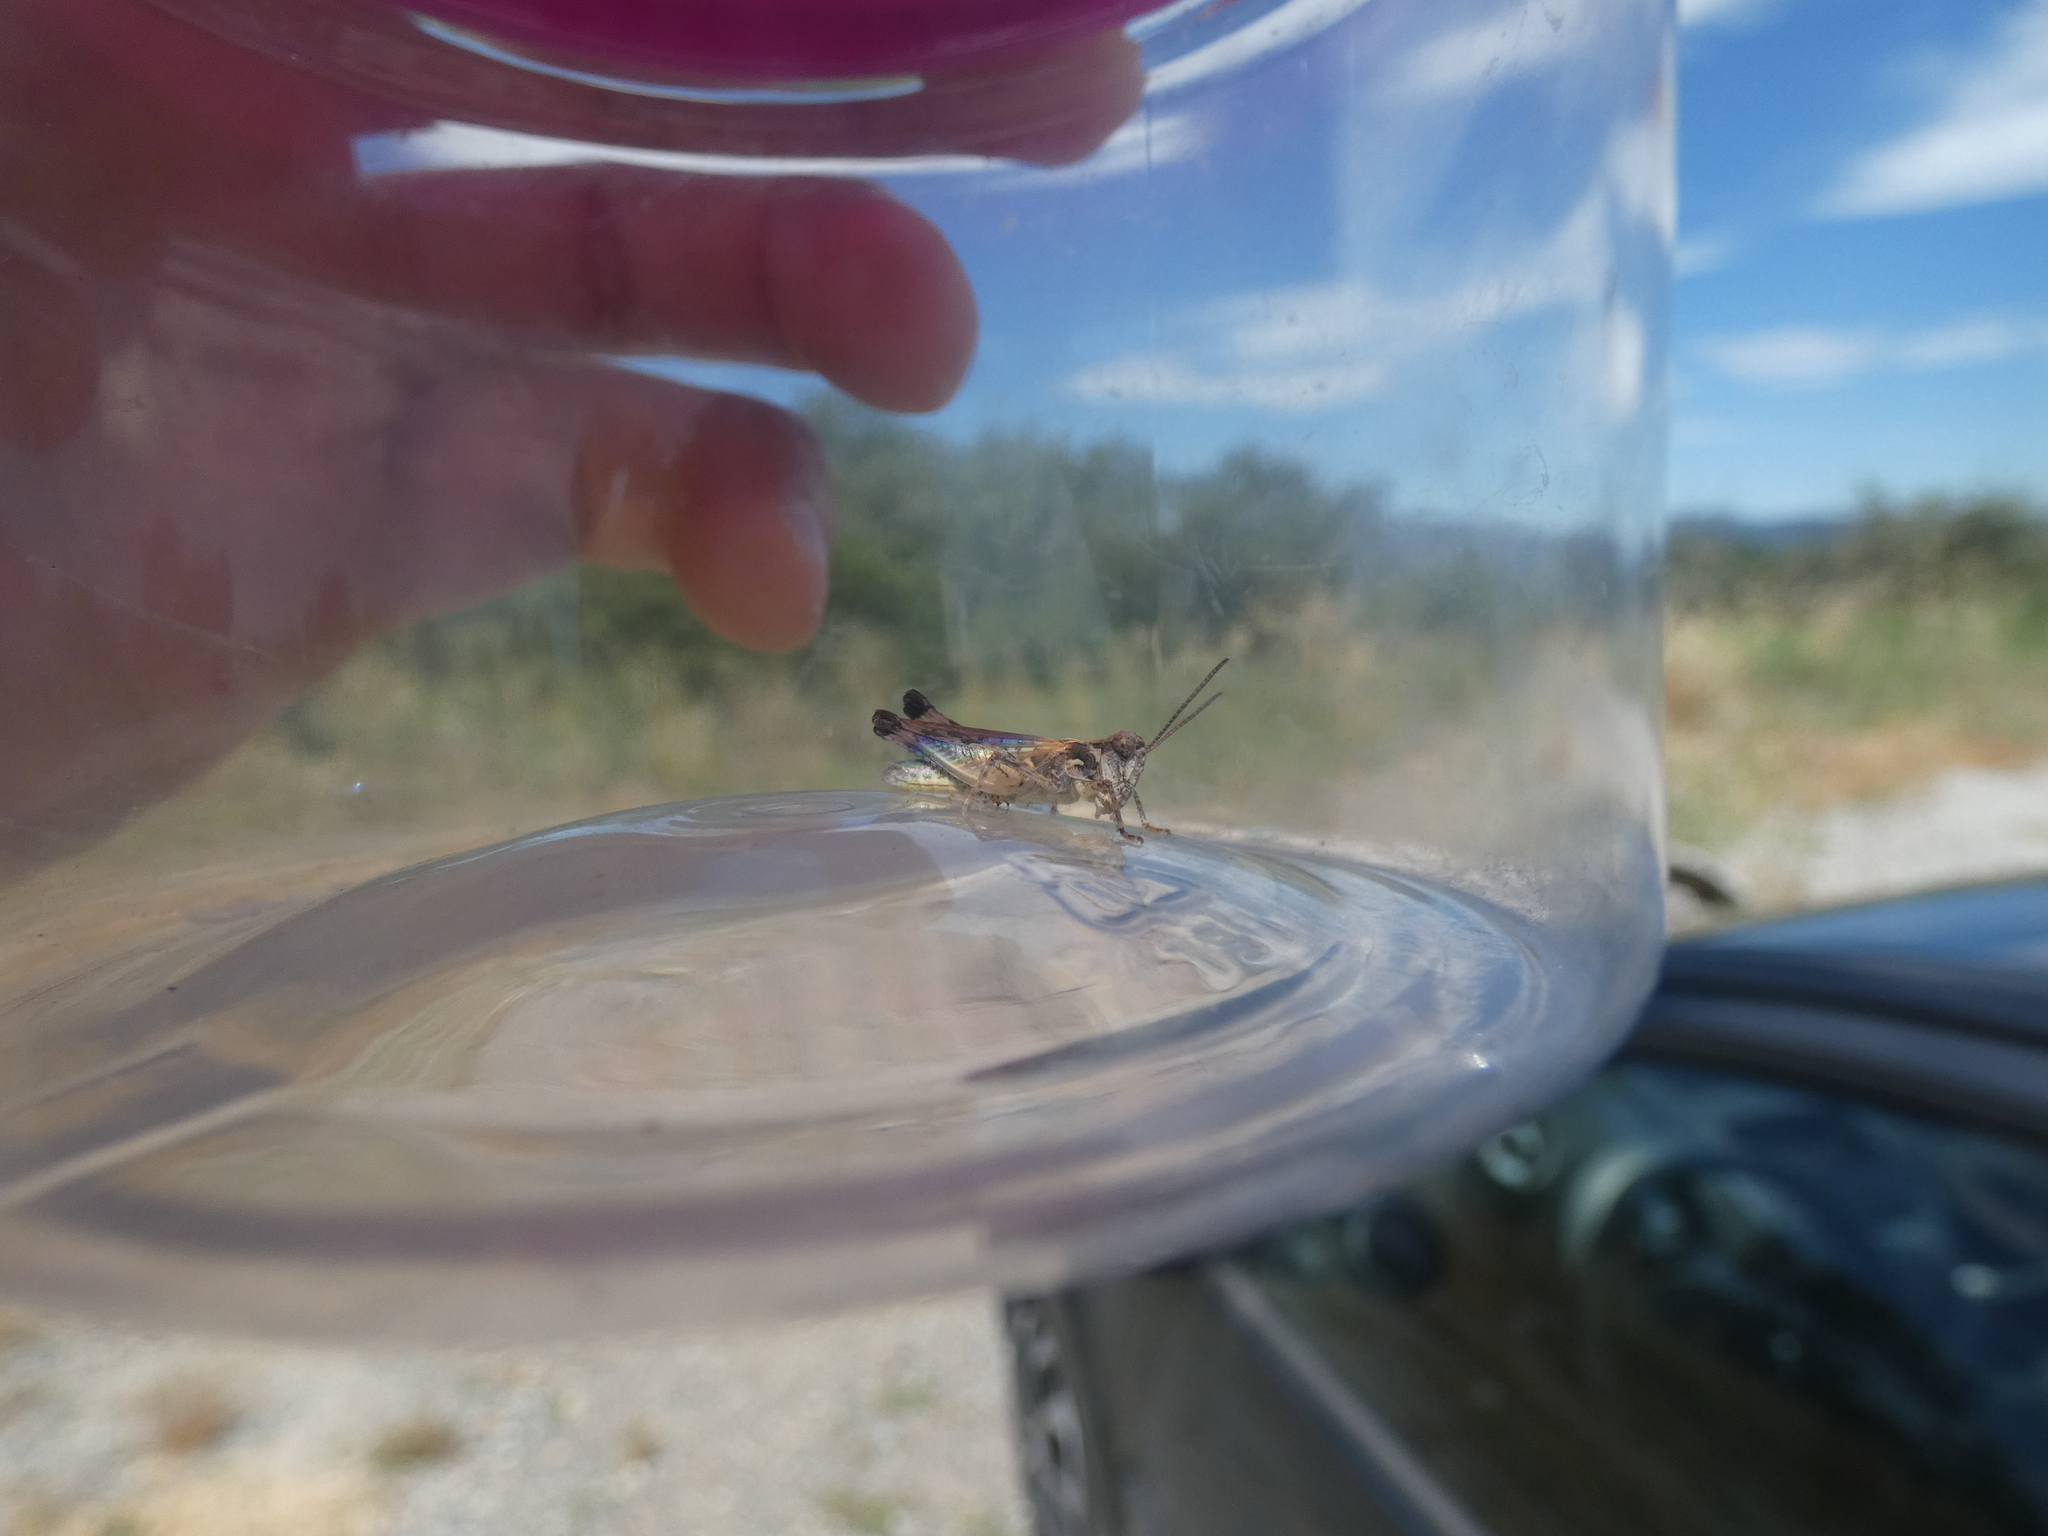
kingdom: Animalia
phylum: Arthropoda
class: Insecta
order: Orthoptera
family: Acrididae
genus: Dociostaurus
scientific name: Dociostaurus genei
